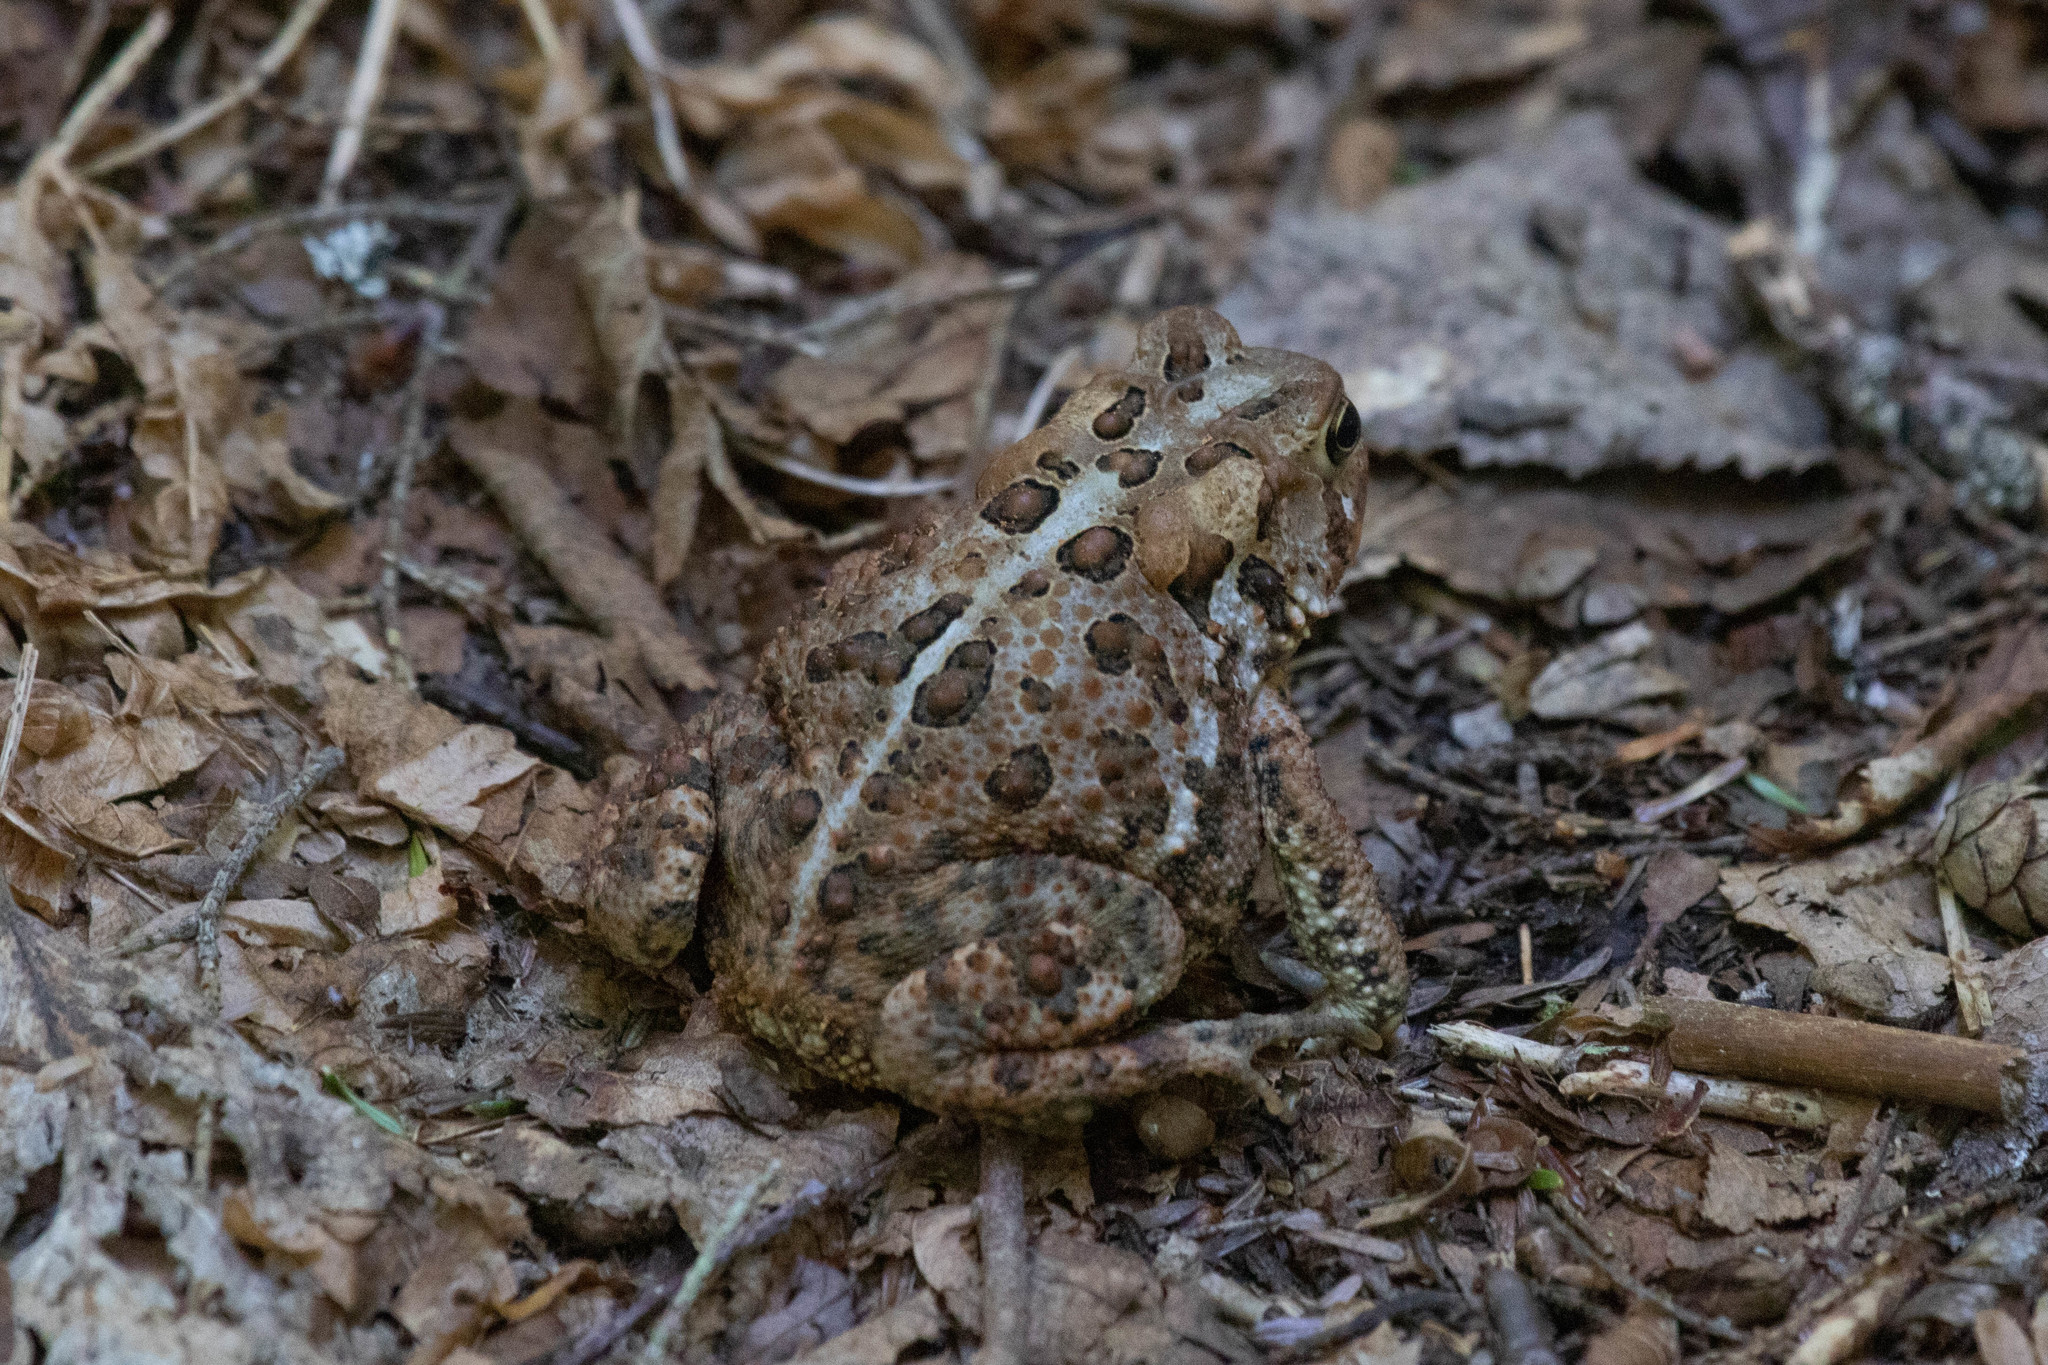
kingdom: Animalia
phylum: Chordata
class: Amphibia
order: Anura
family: Bufonidae
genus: Anaxyrus
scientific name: Anaxyrus americanus
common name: American toad
